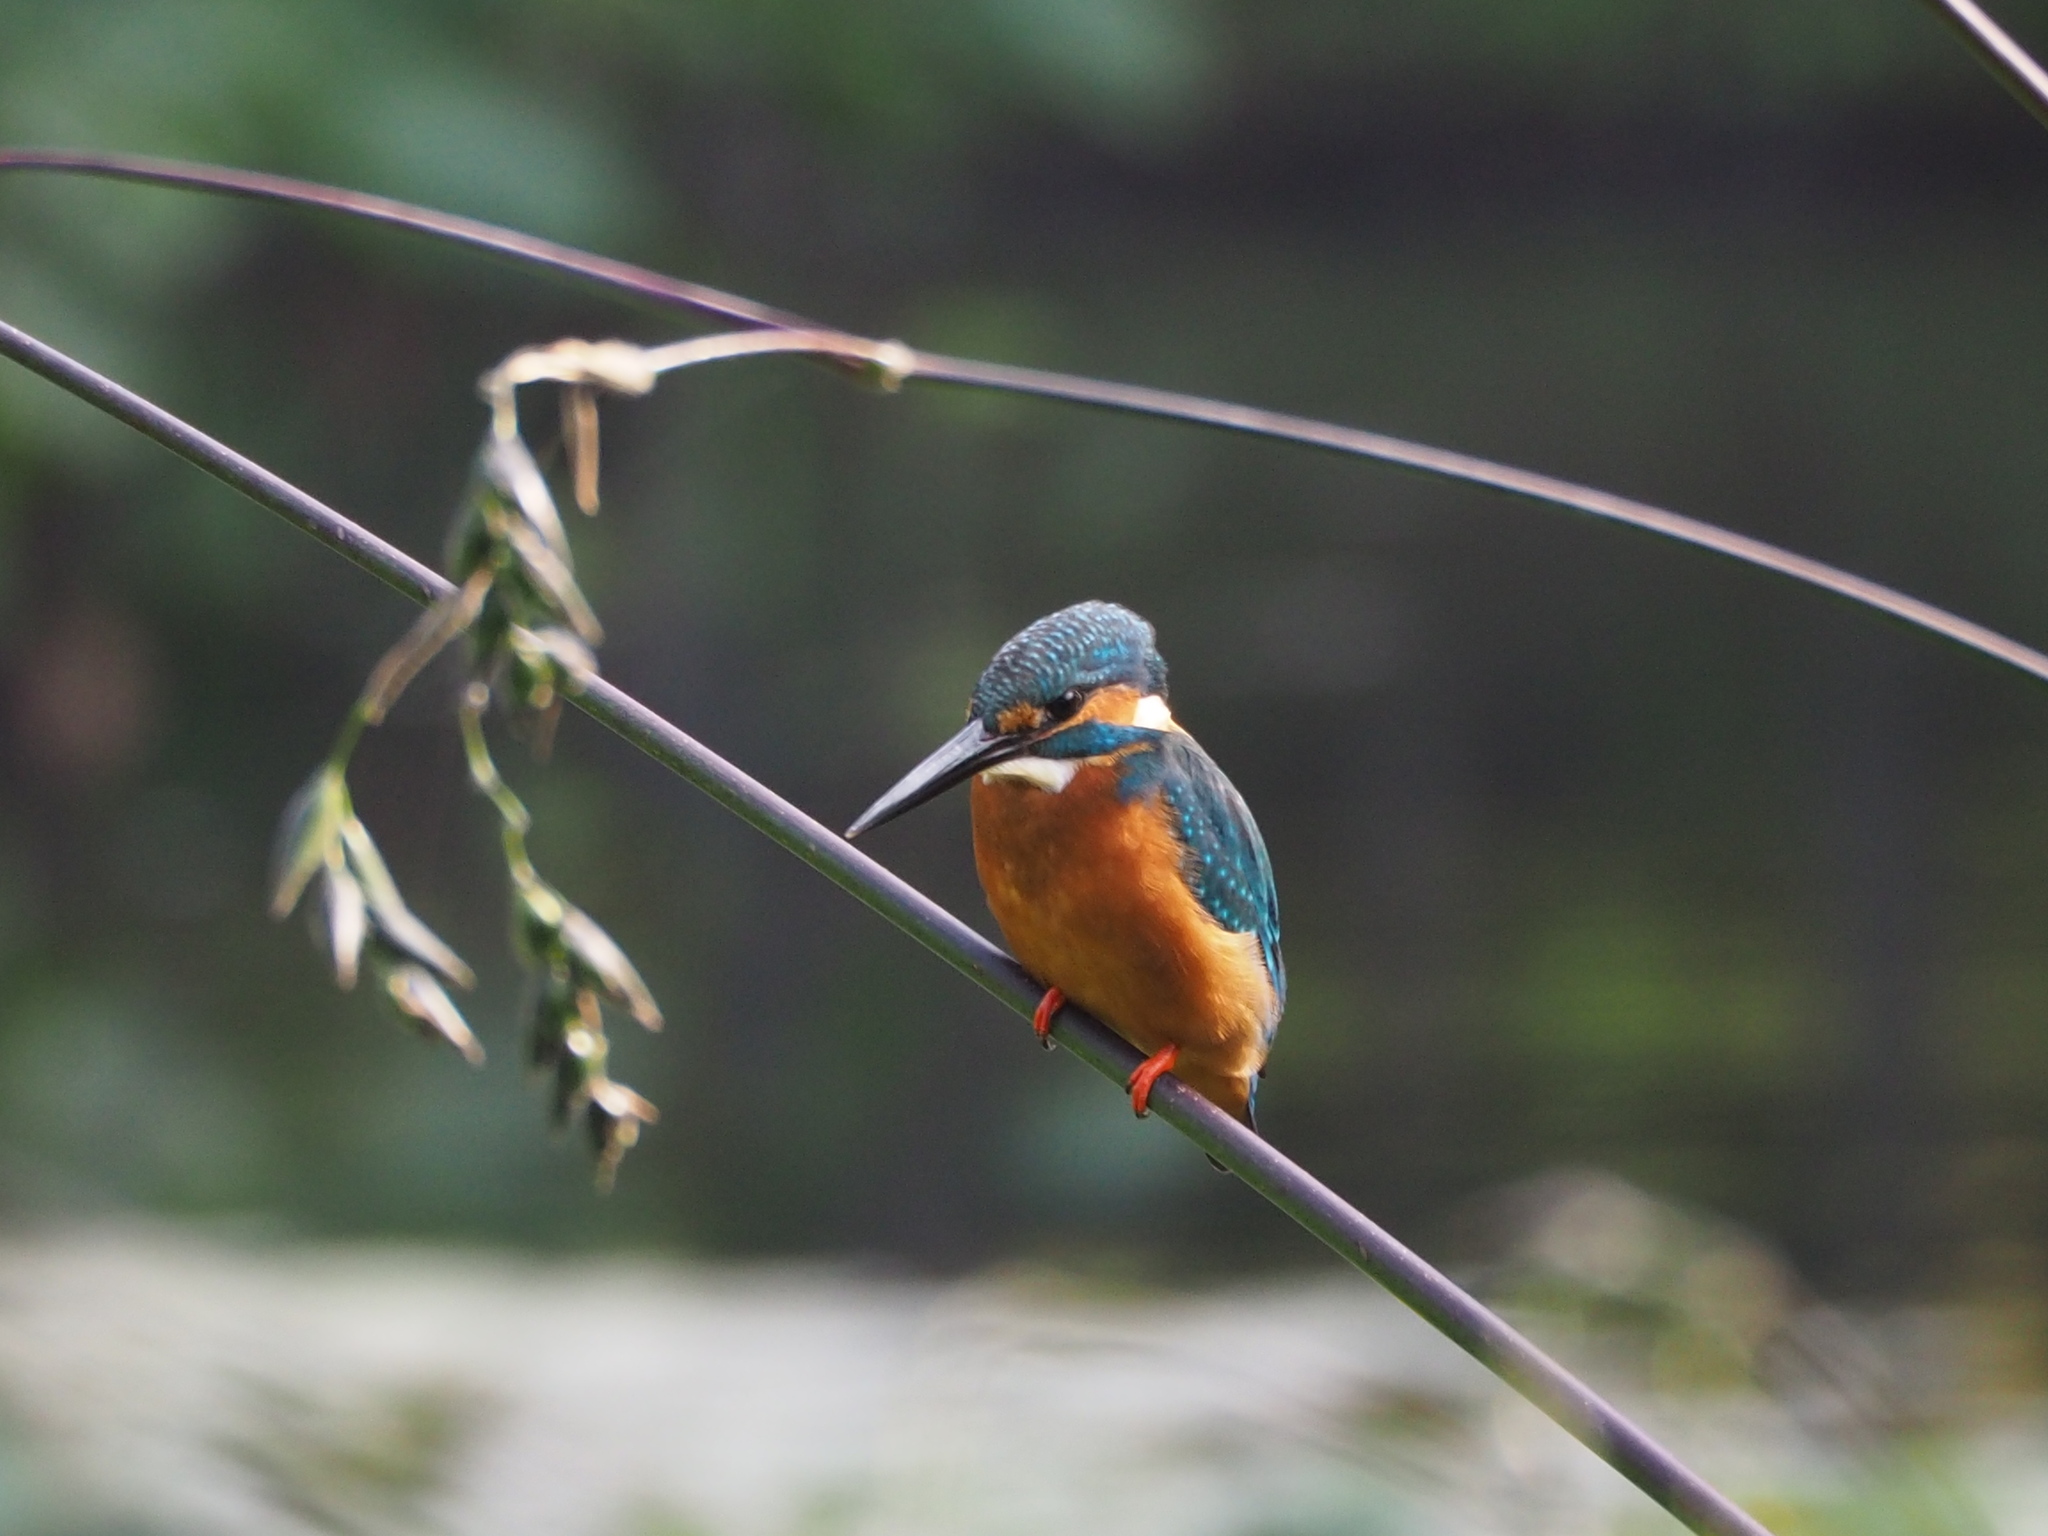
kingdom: Animalia
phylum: Chordata
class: Aves
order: Coraciiformes
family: Alcedinidae
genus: Alcedo
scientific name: Alcedo atthis
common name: Common kingfisher
